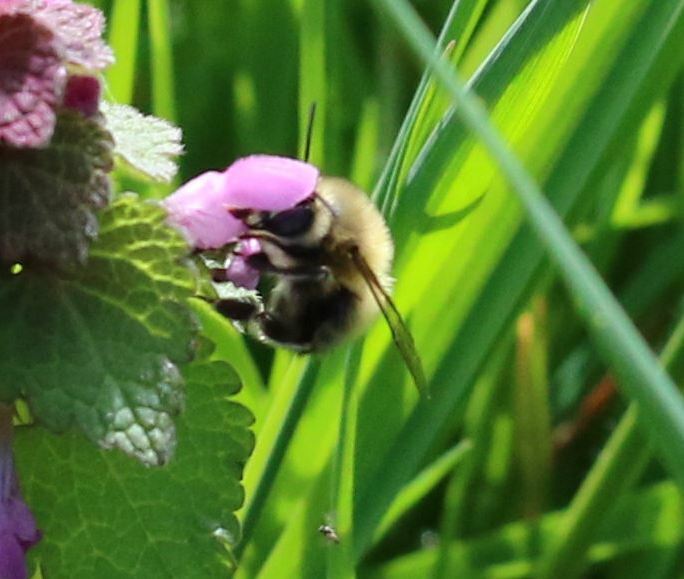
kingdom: Animalia
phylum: Arthropoda
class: Insecta
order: Hymenoptera
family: Apidae
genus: Anthophora
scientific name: Anthophora plumipes
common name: Hairy-footed flower bee
